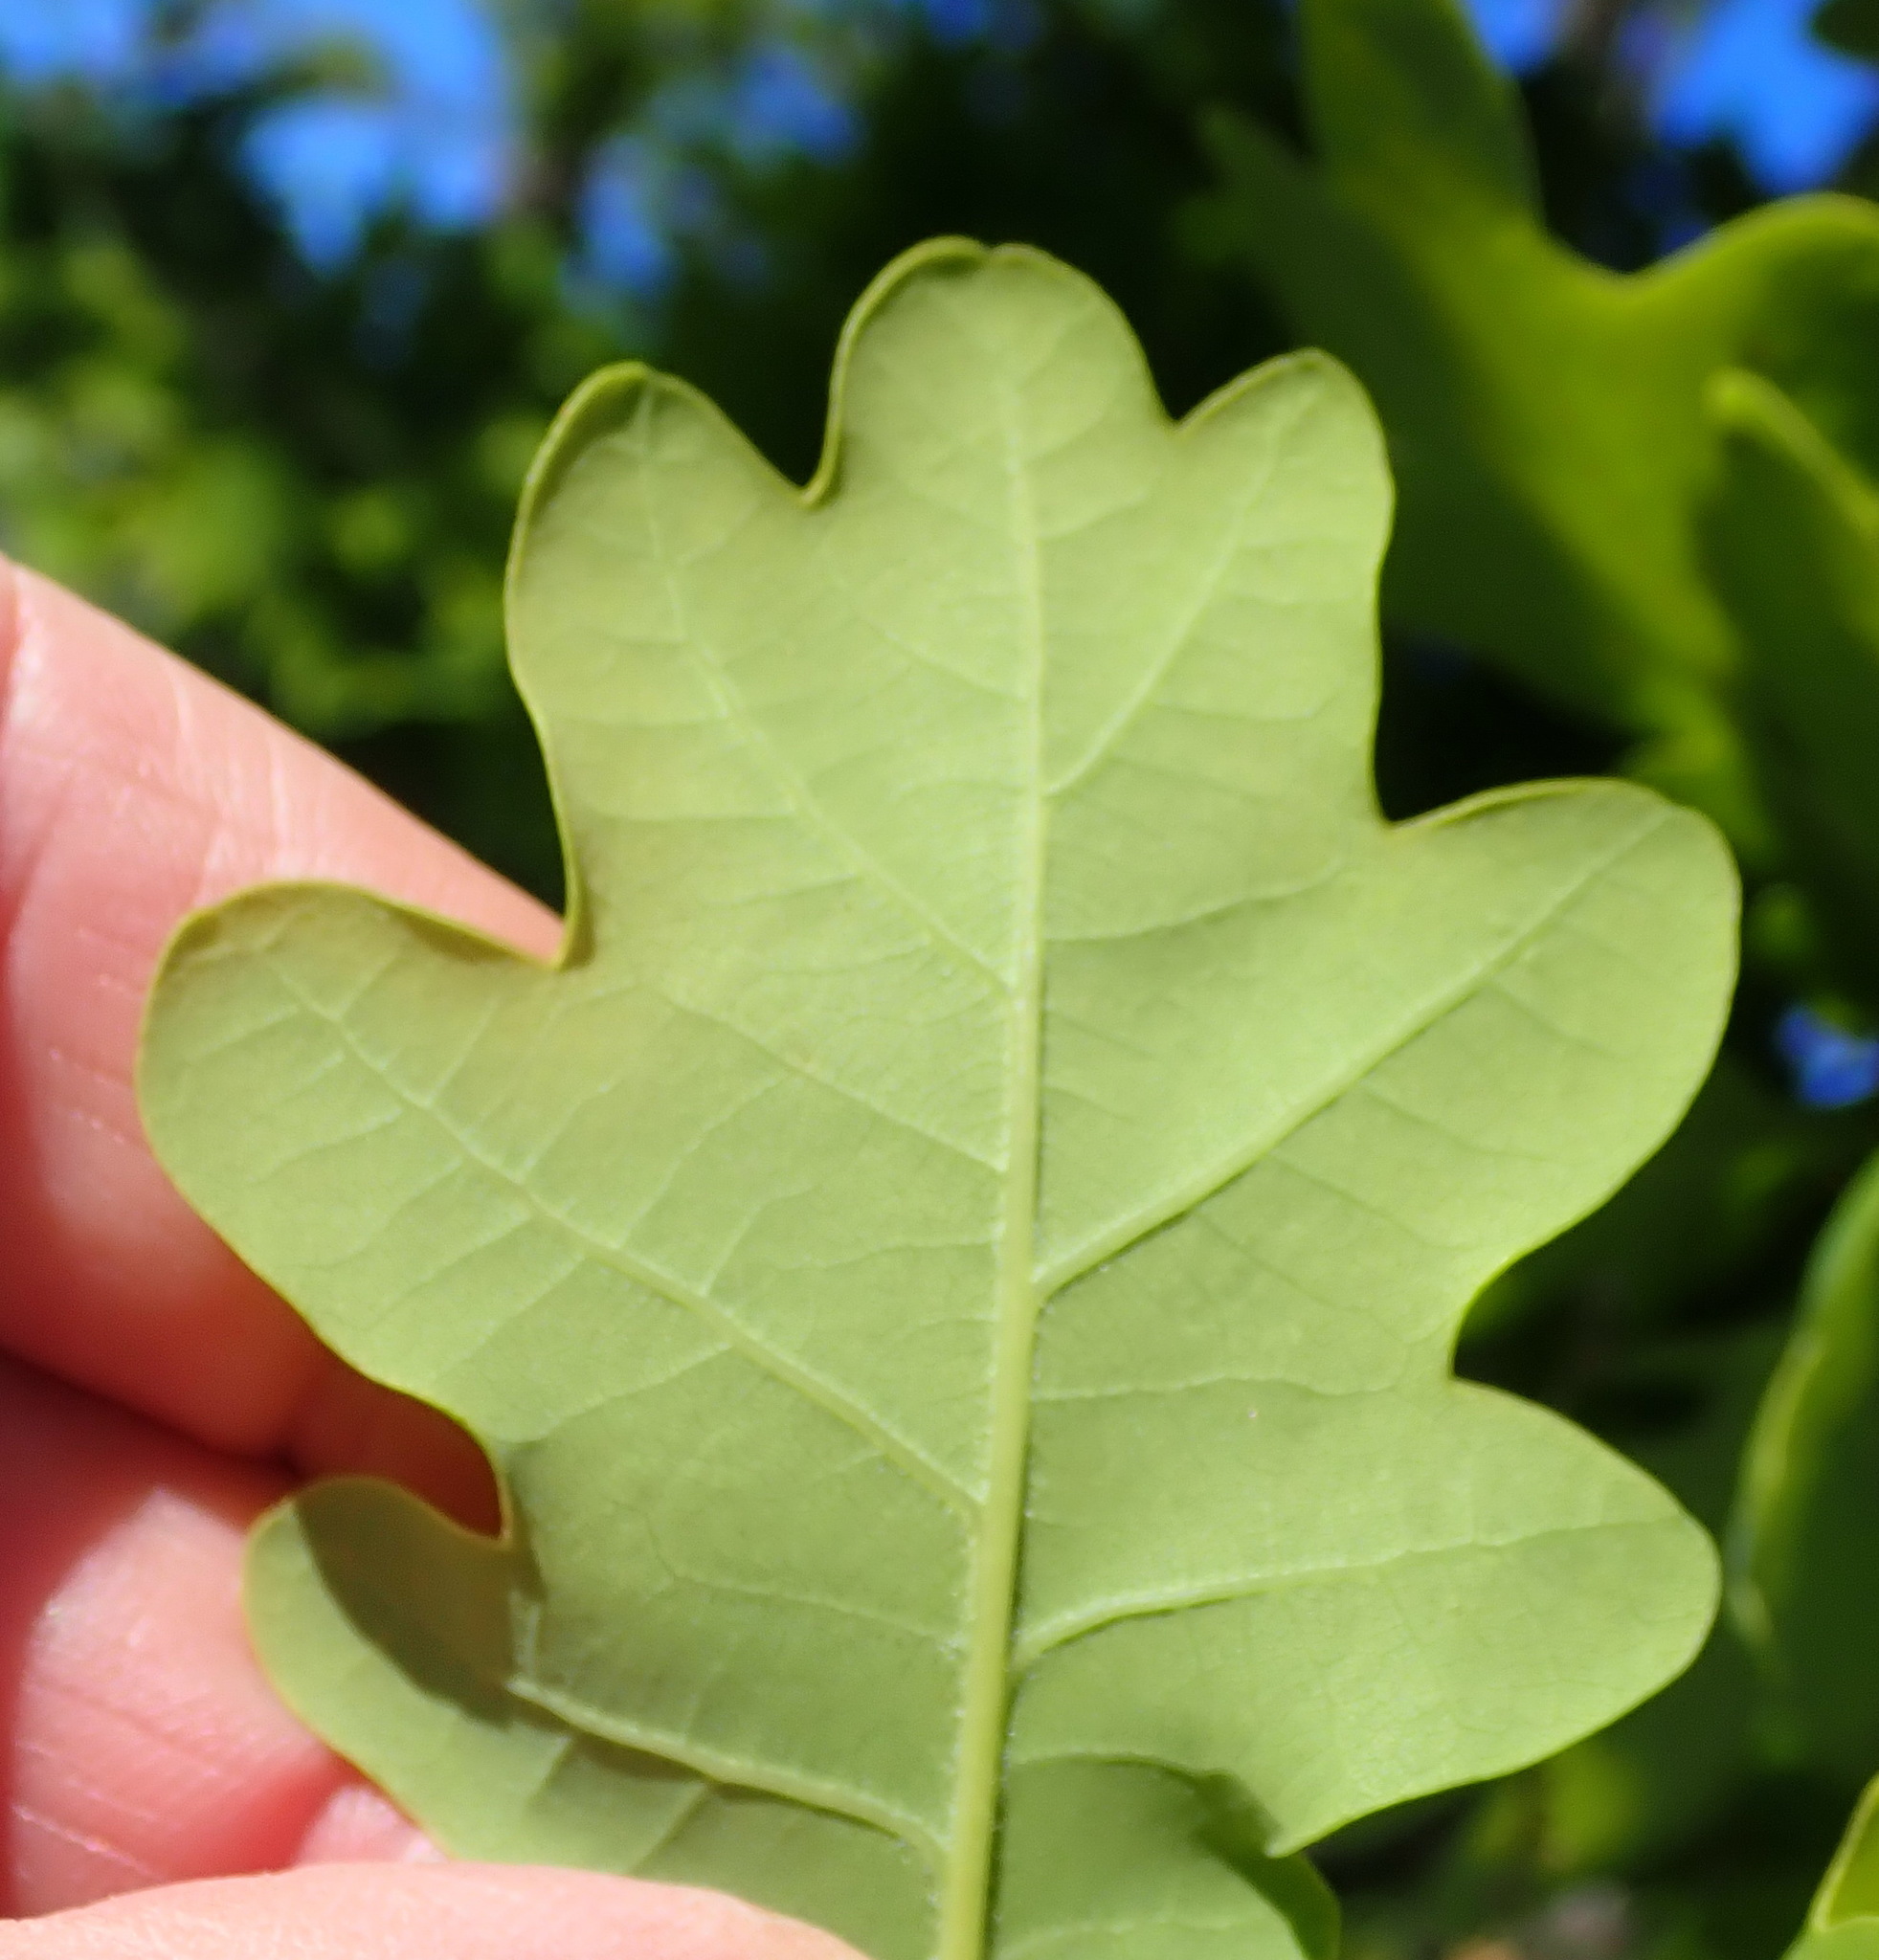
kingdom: Plantae
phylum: Tracheophyta
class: Magnoliopsida
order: Fagales
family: Fagaceae
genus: Quercus
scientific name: Quercus robur
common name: Pedunculate oak
